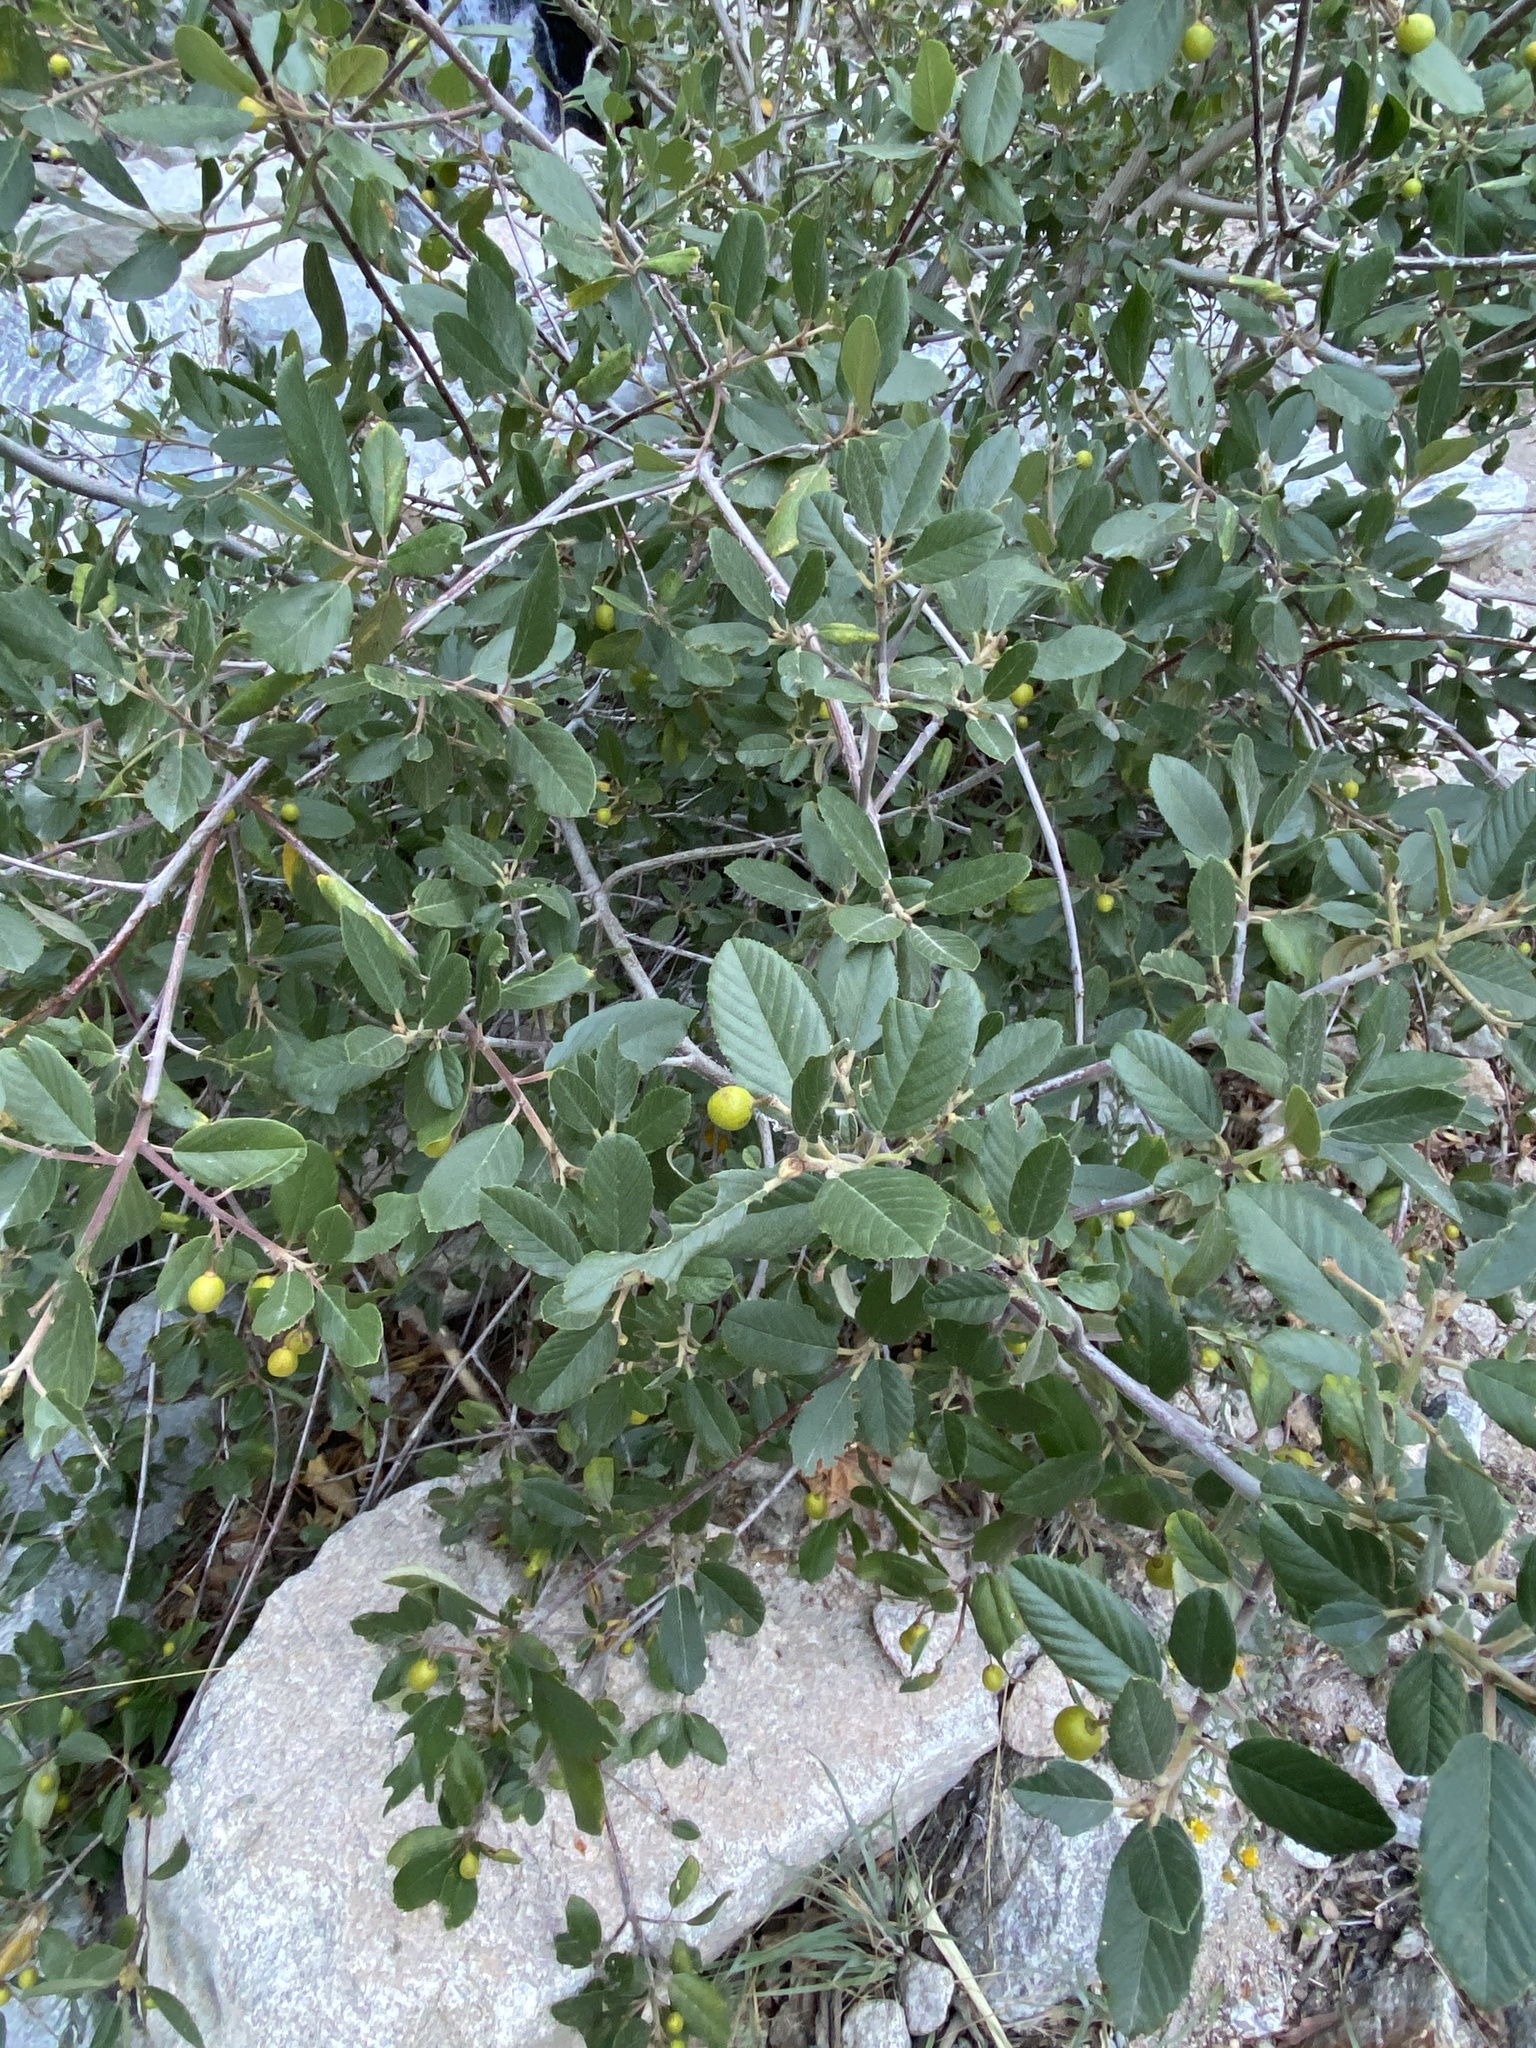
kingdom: Plantae
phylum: Tracheophyta
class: Magnoliopsida
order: Rosales
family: Rhamnaceae
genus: Frangula
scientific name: Frangula californica
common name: California buckthorn
